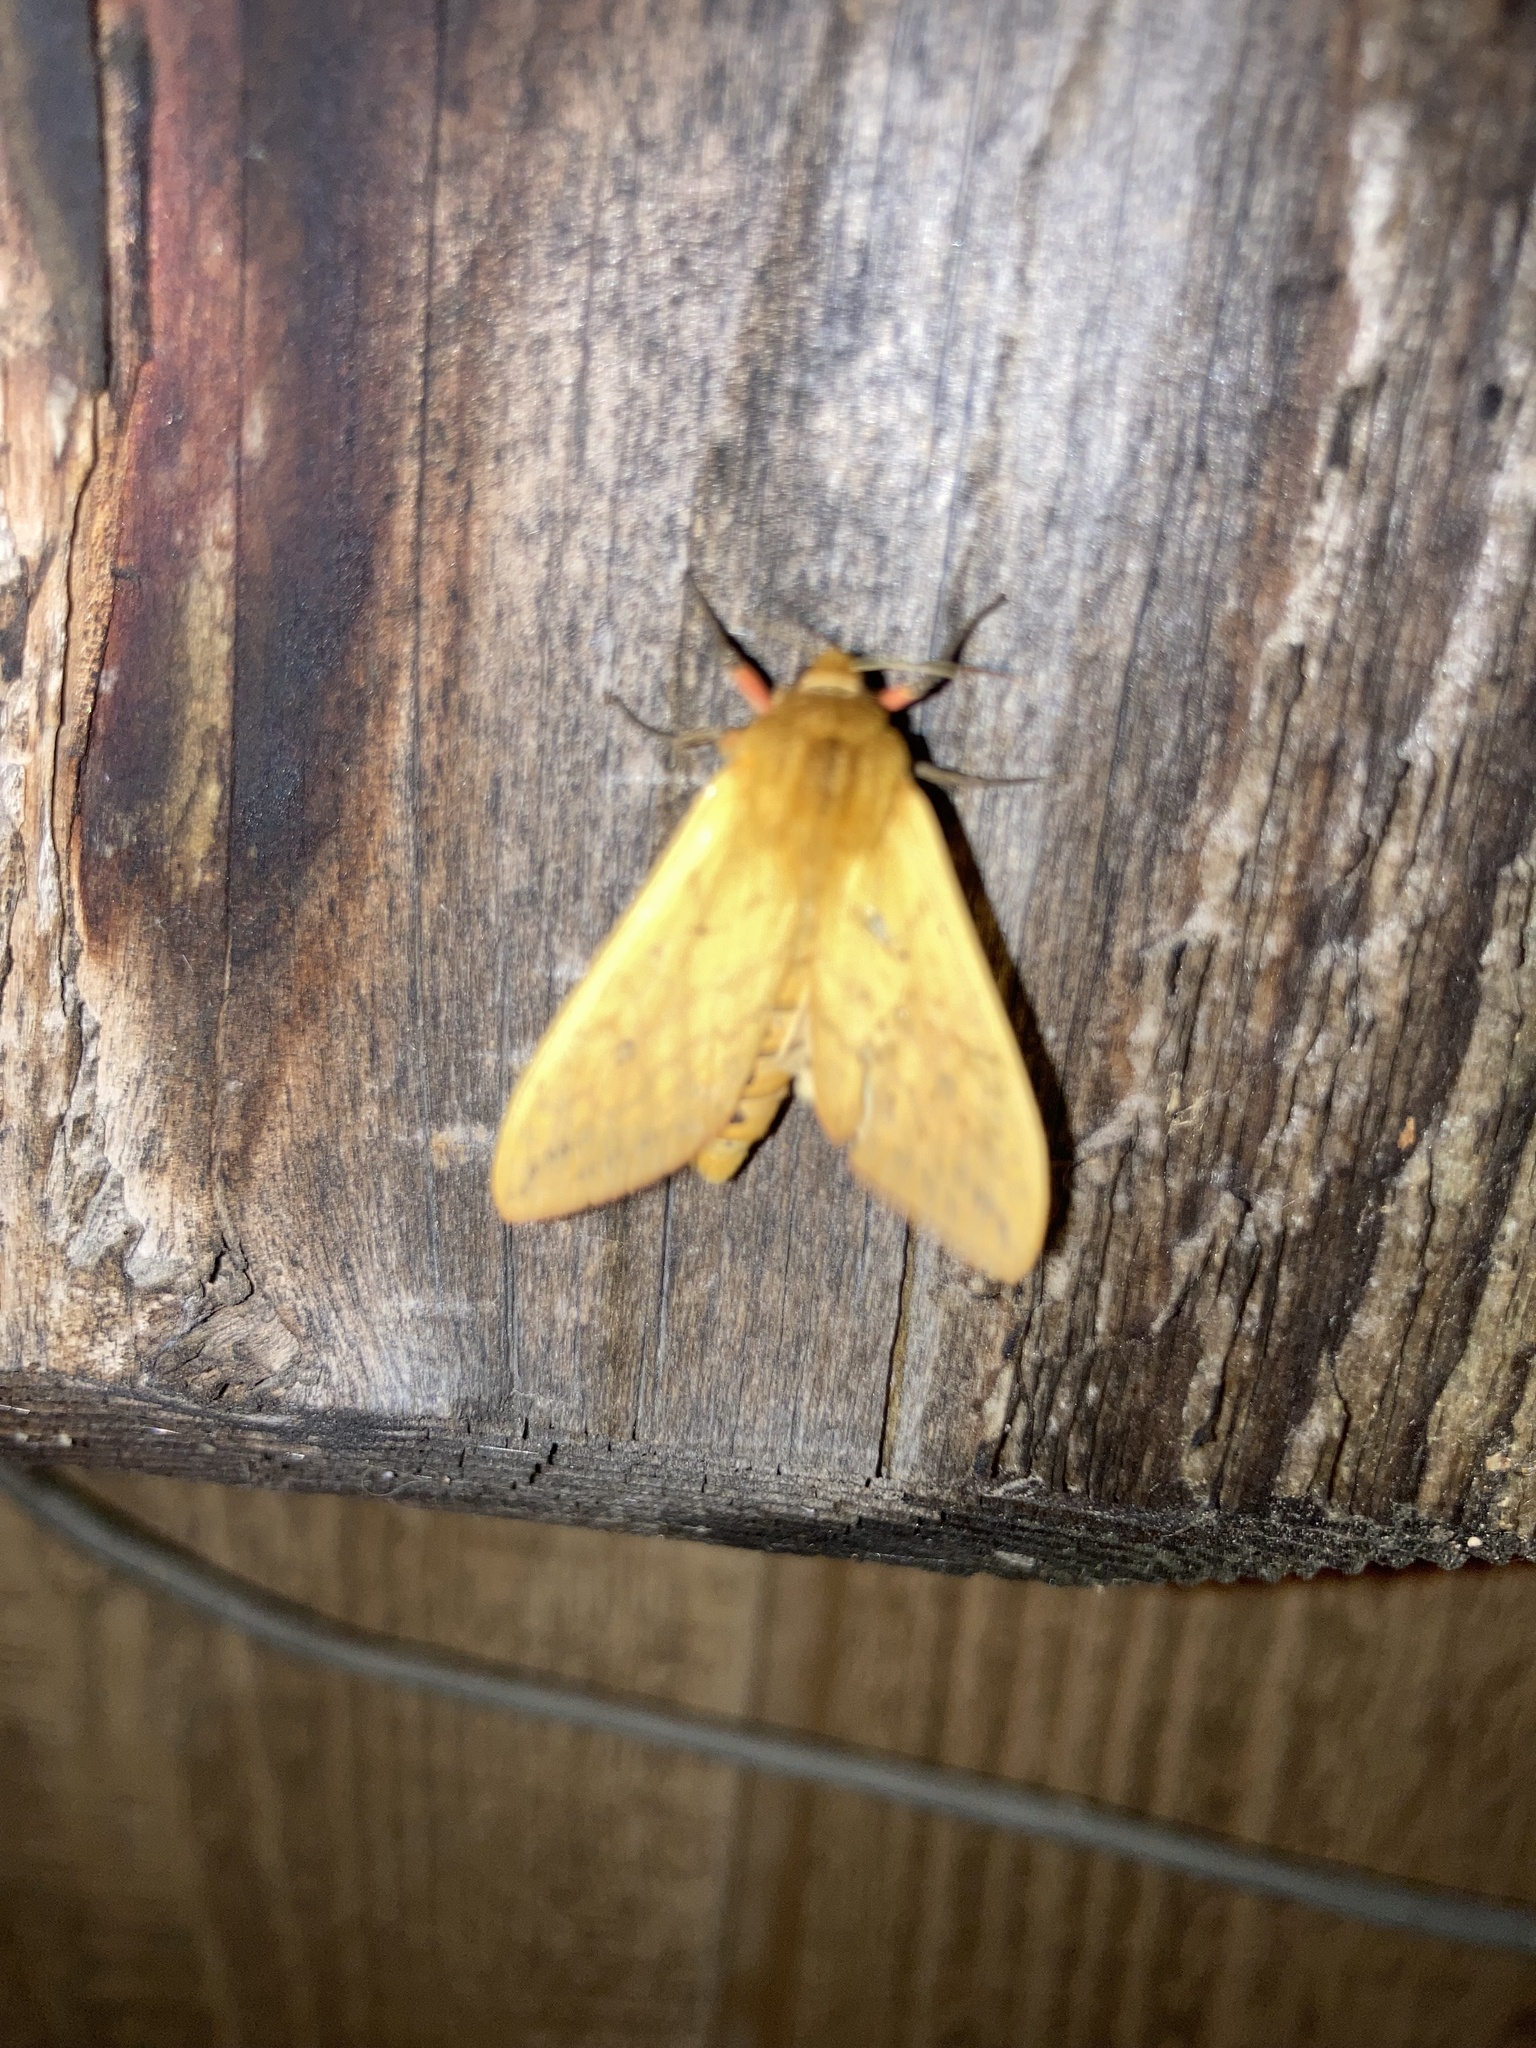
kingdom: Animalia
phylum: Arthropoda
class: Insecta
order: Lepidoptera
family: Erebidae
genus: Pyrrharctia
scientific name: Pyrrharctia isabella
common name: Isabella tiger moth
